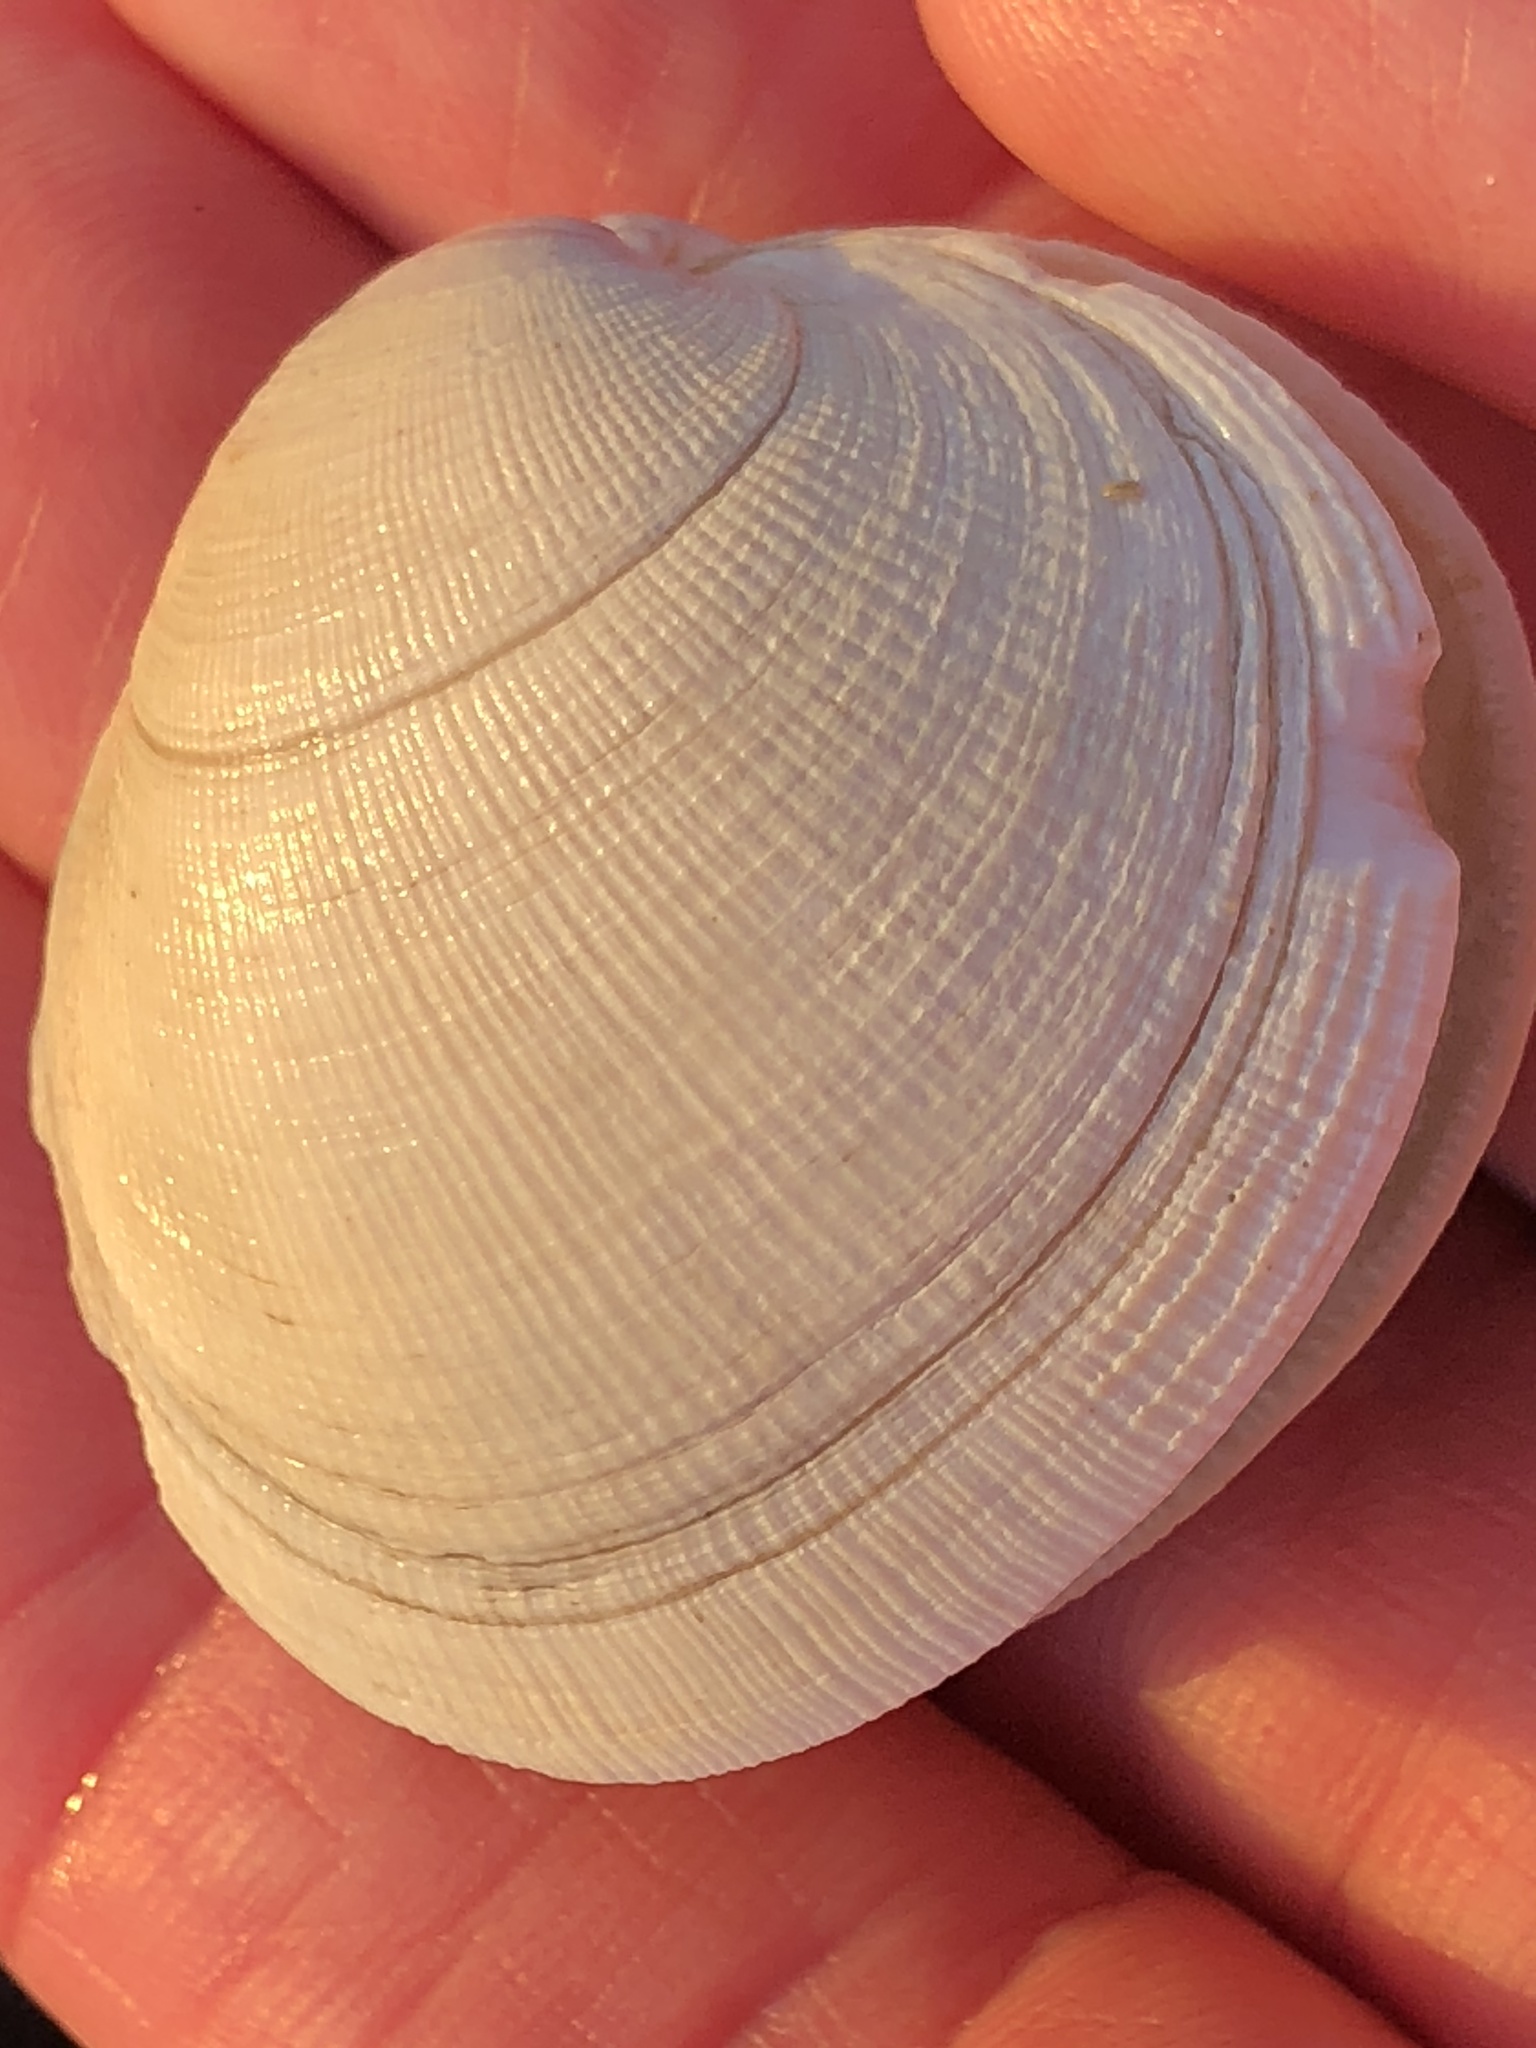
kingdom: Animalia
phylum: Mollusca
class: Bivalvia
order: Venerida
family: Veneridae
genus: Leukoma
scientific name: Leukoma staminea
